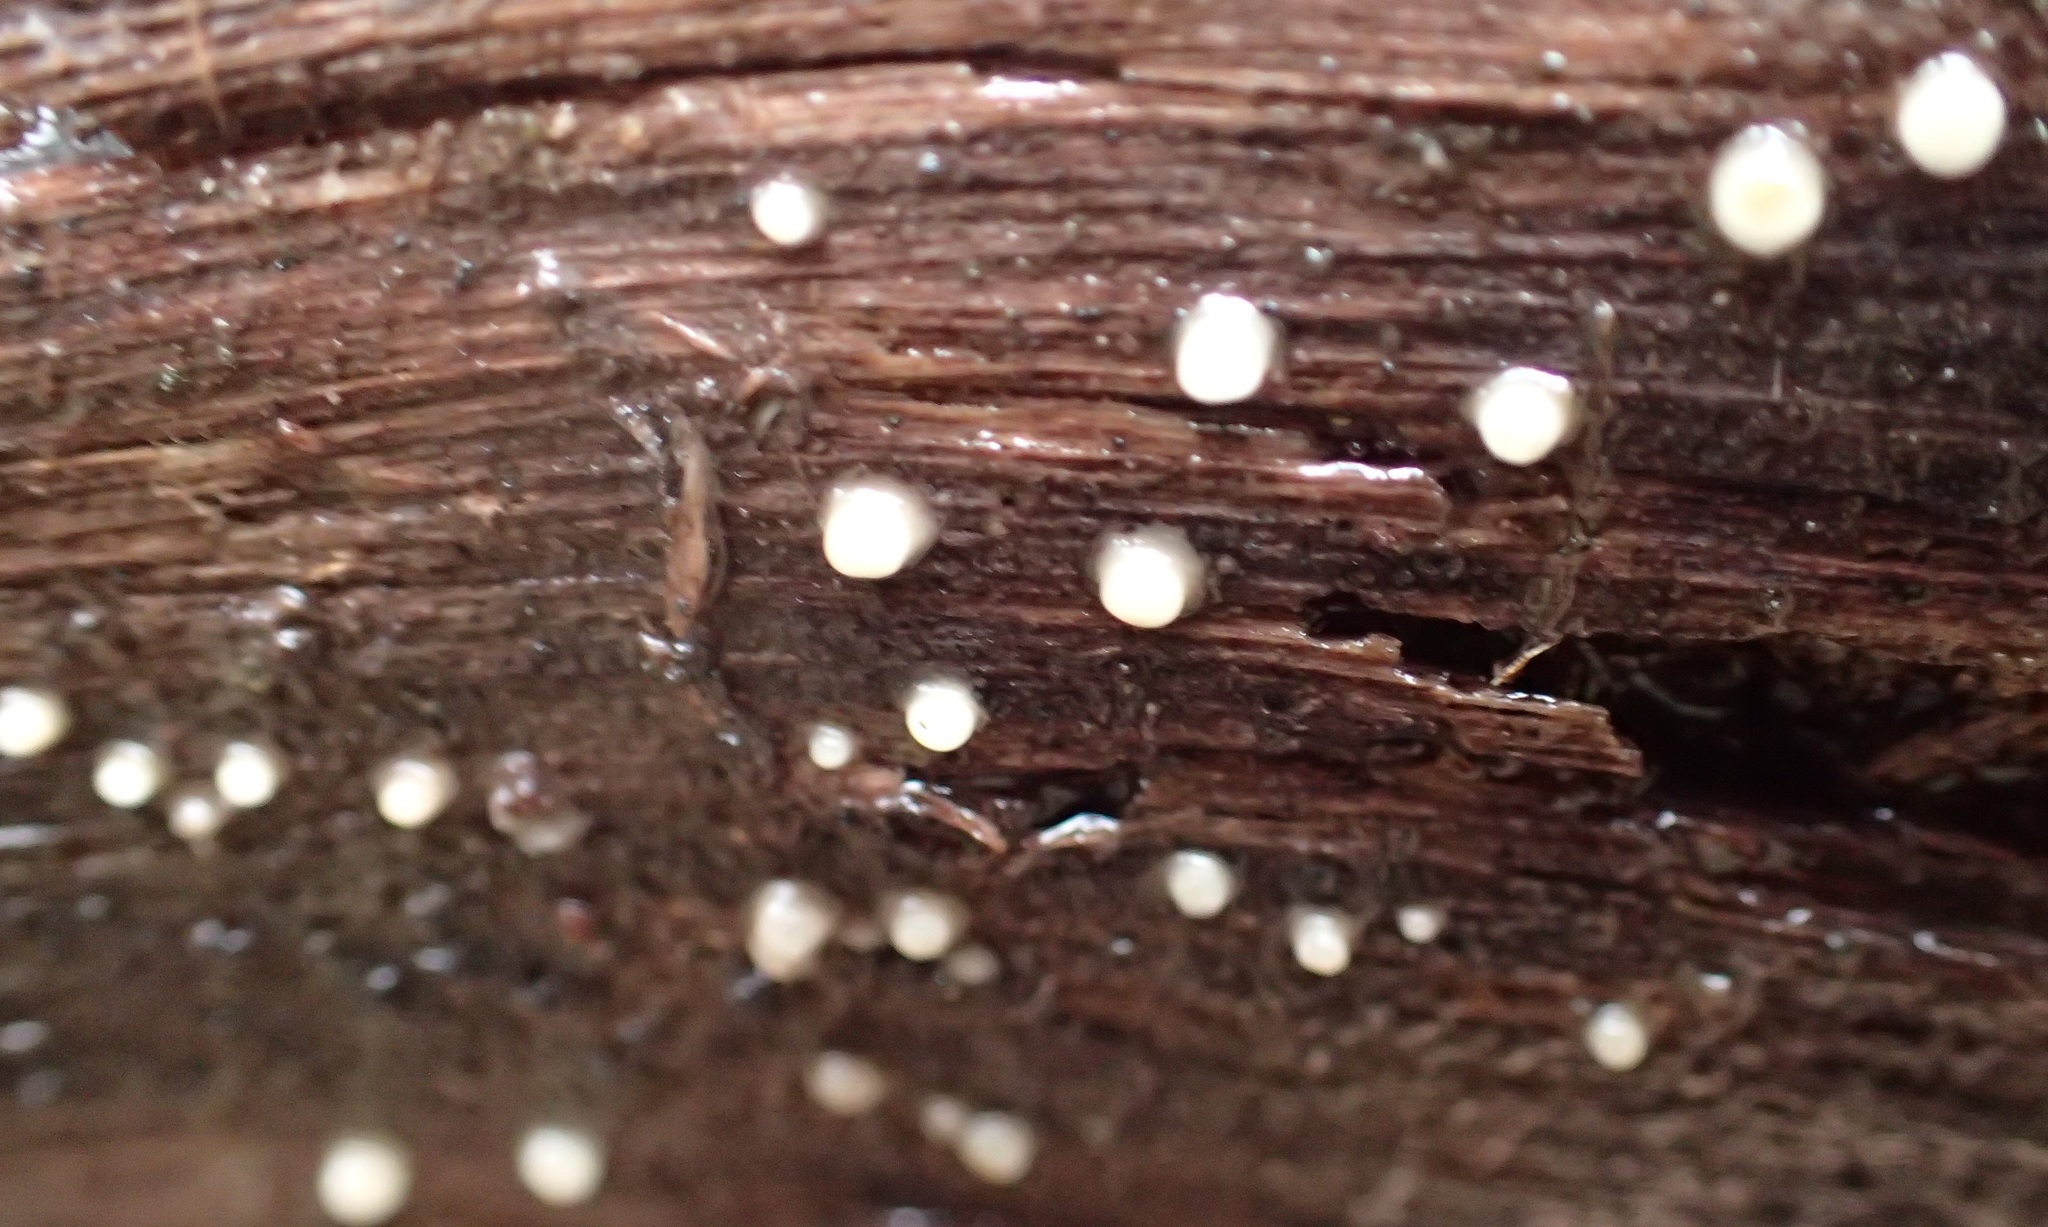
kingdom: Fungi
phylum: Basidiomycota
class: Atractiellomycetes
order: Atractiellales
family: Phleogenaceae
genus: Helicogloea
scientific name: Helicogloea compressa
